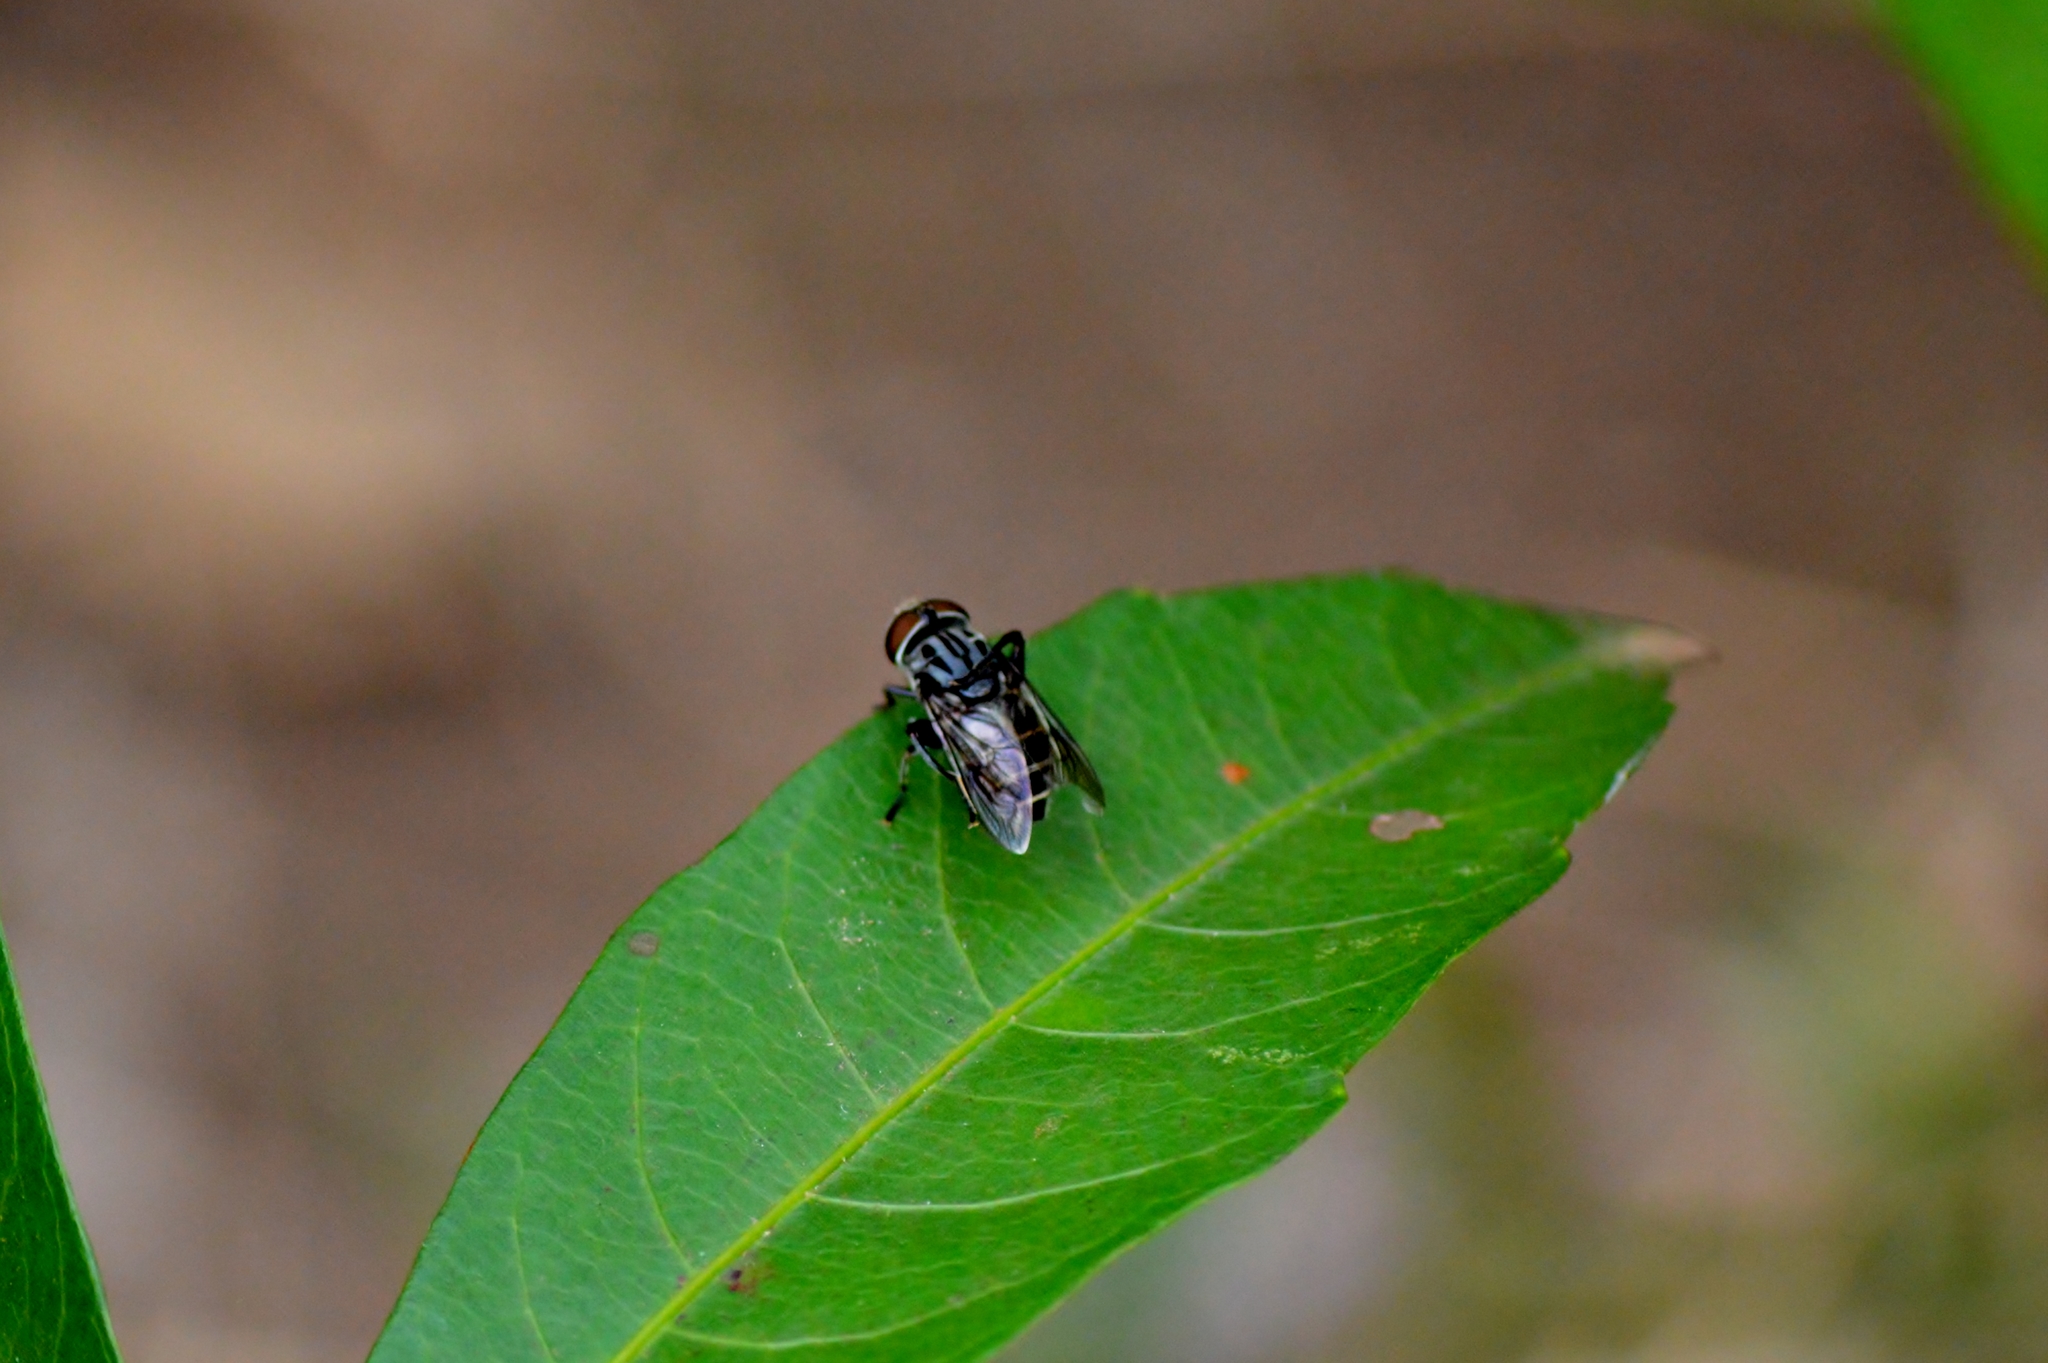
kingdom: Animalia
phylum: Arthropoda
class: Insecta
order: Diptera
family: Syrphidae
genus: Palpada
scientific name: Palpada furcata
